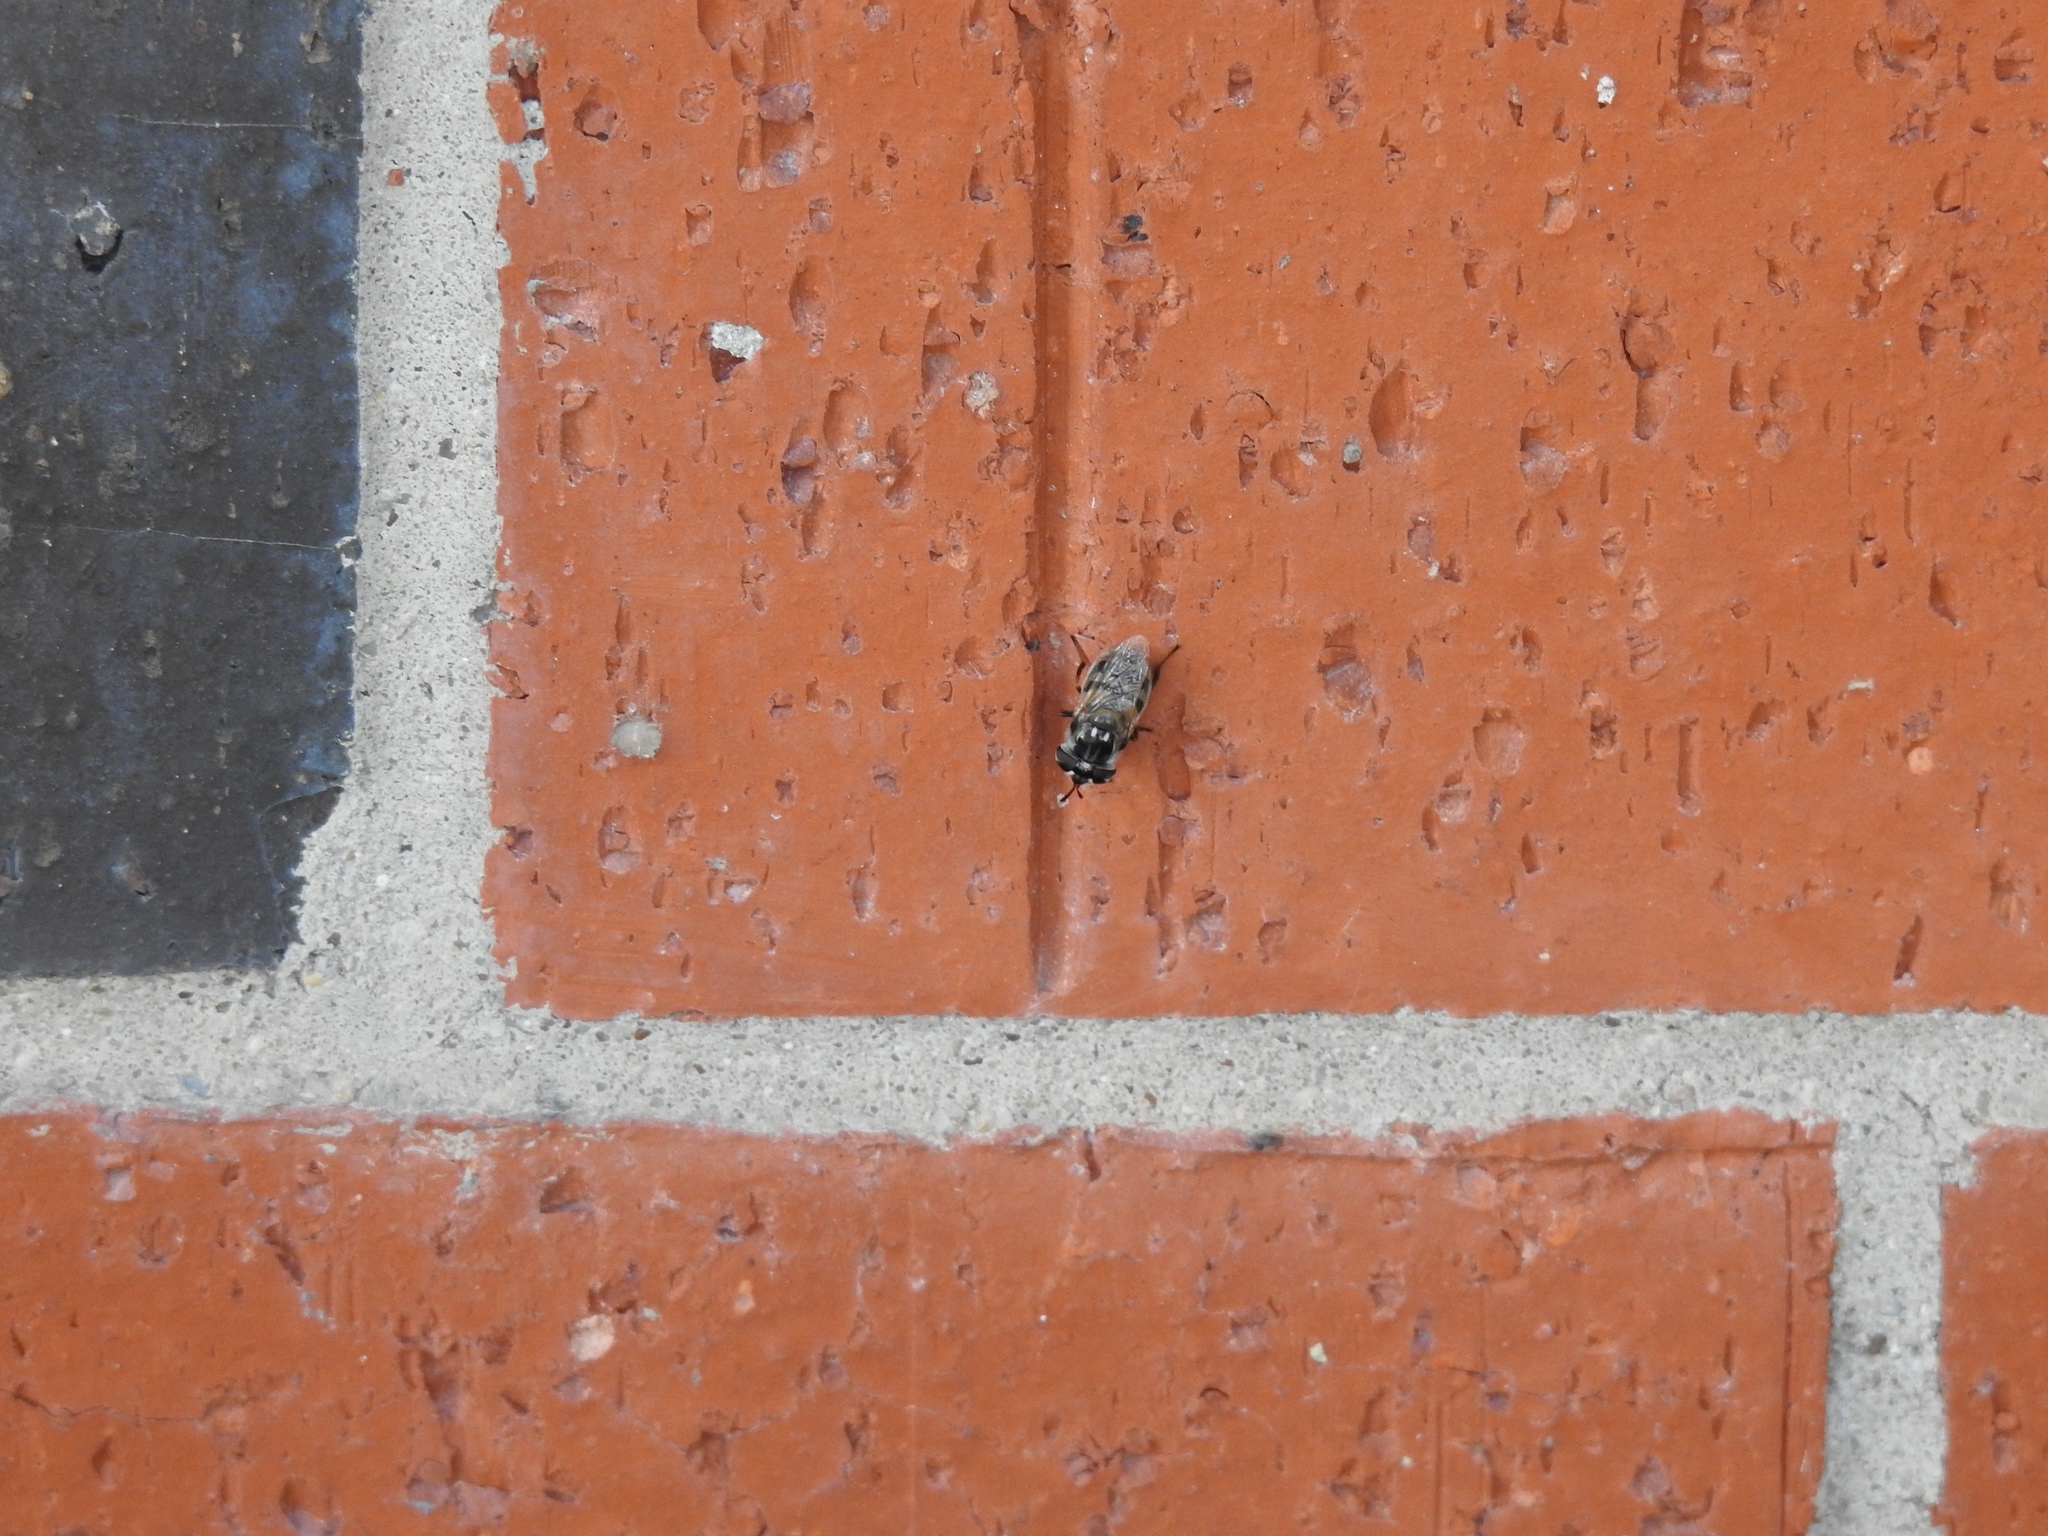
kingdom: Animalia
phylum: Arthropoda
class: Insecta
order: Diptera
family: Syrphidae
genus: Copestylum
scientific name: Copestylum marginatum
